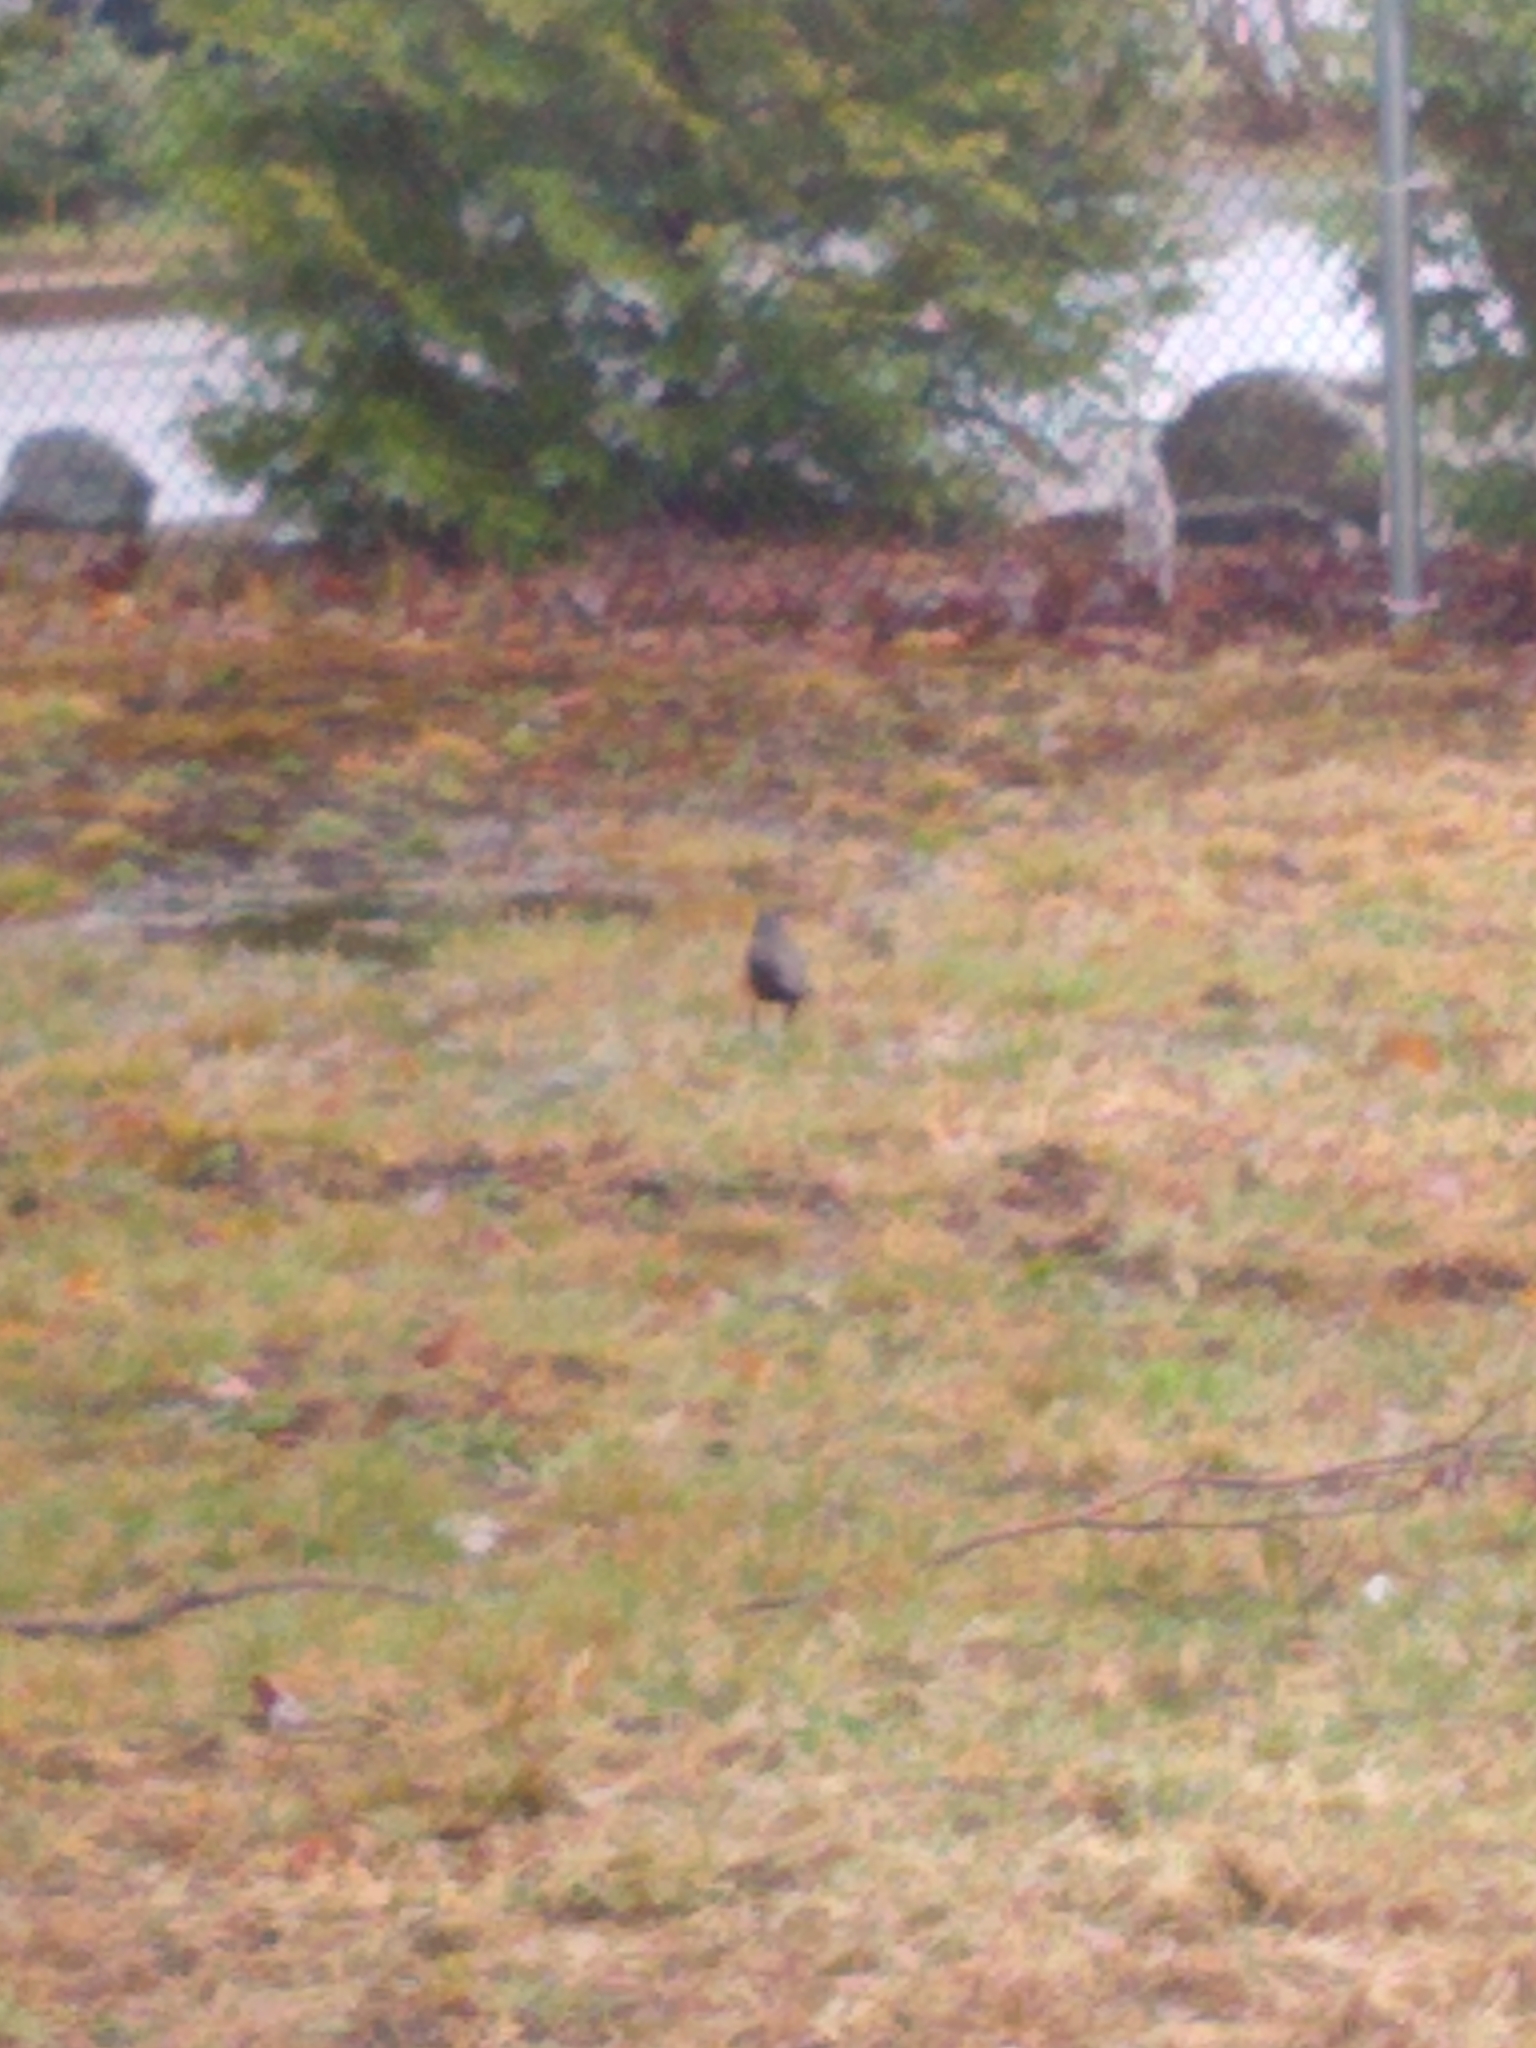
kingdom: Animalia
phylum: Chordata
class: Aves
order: Passeriformes
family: Icteridae
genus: Quiscalus
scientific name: Quiscalus quiscula
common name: Common grackle
